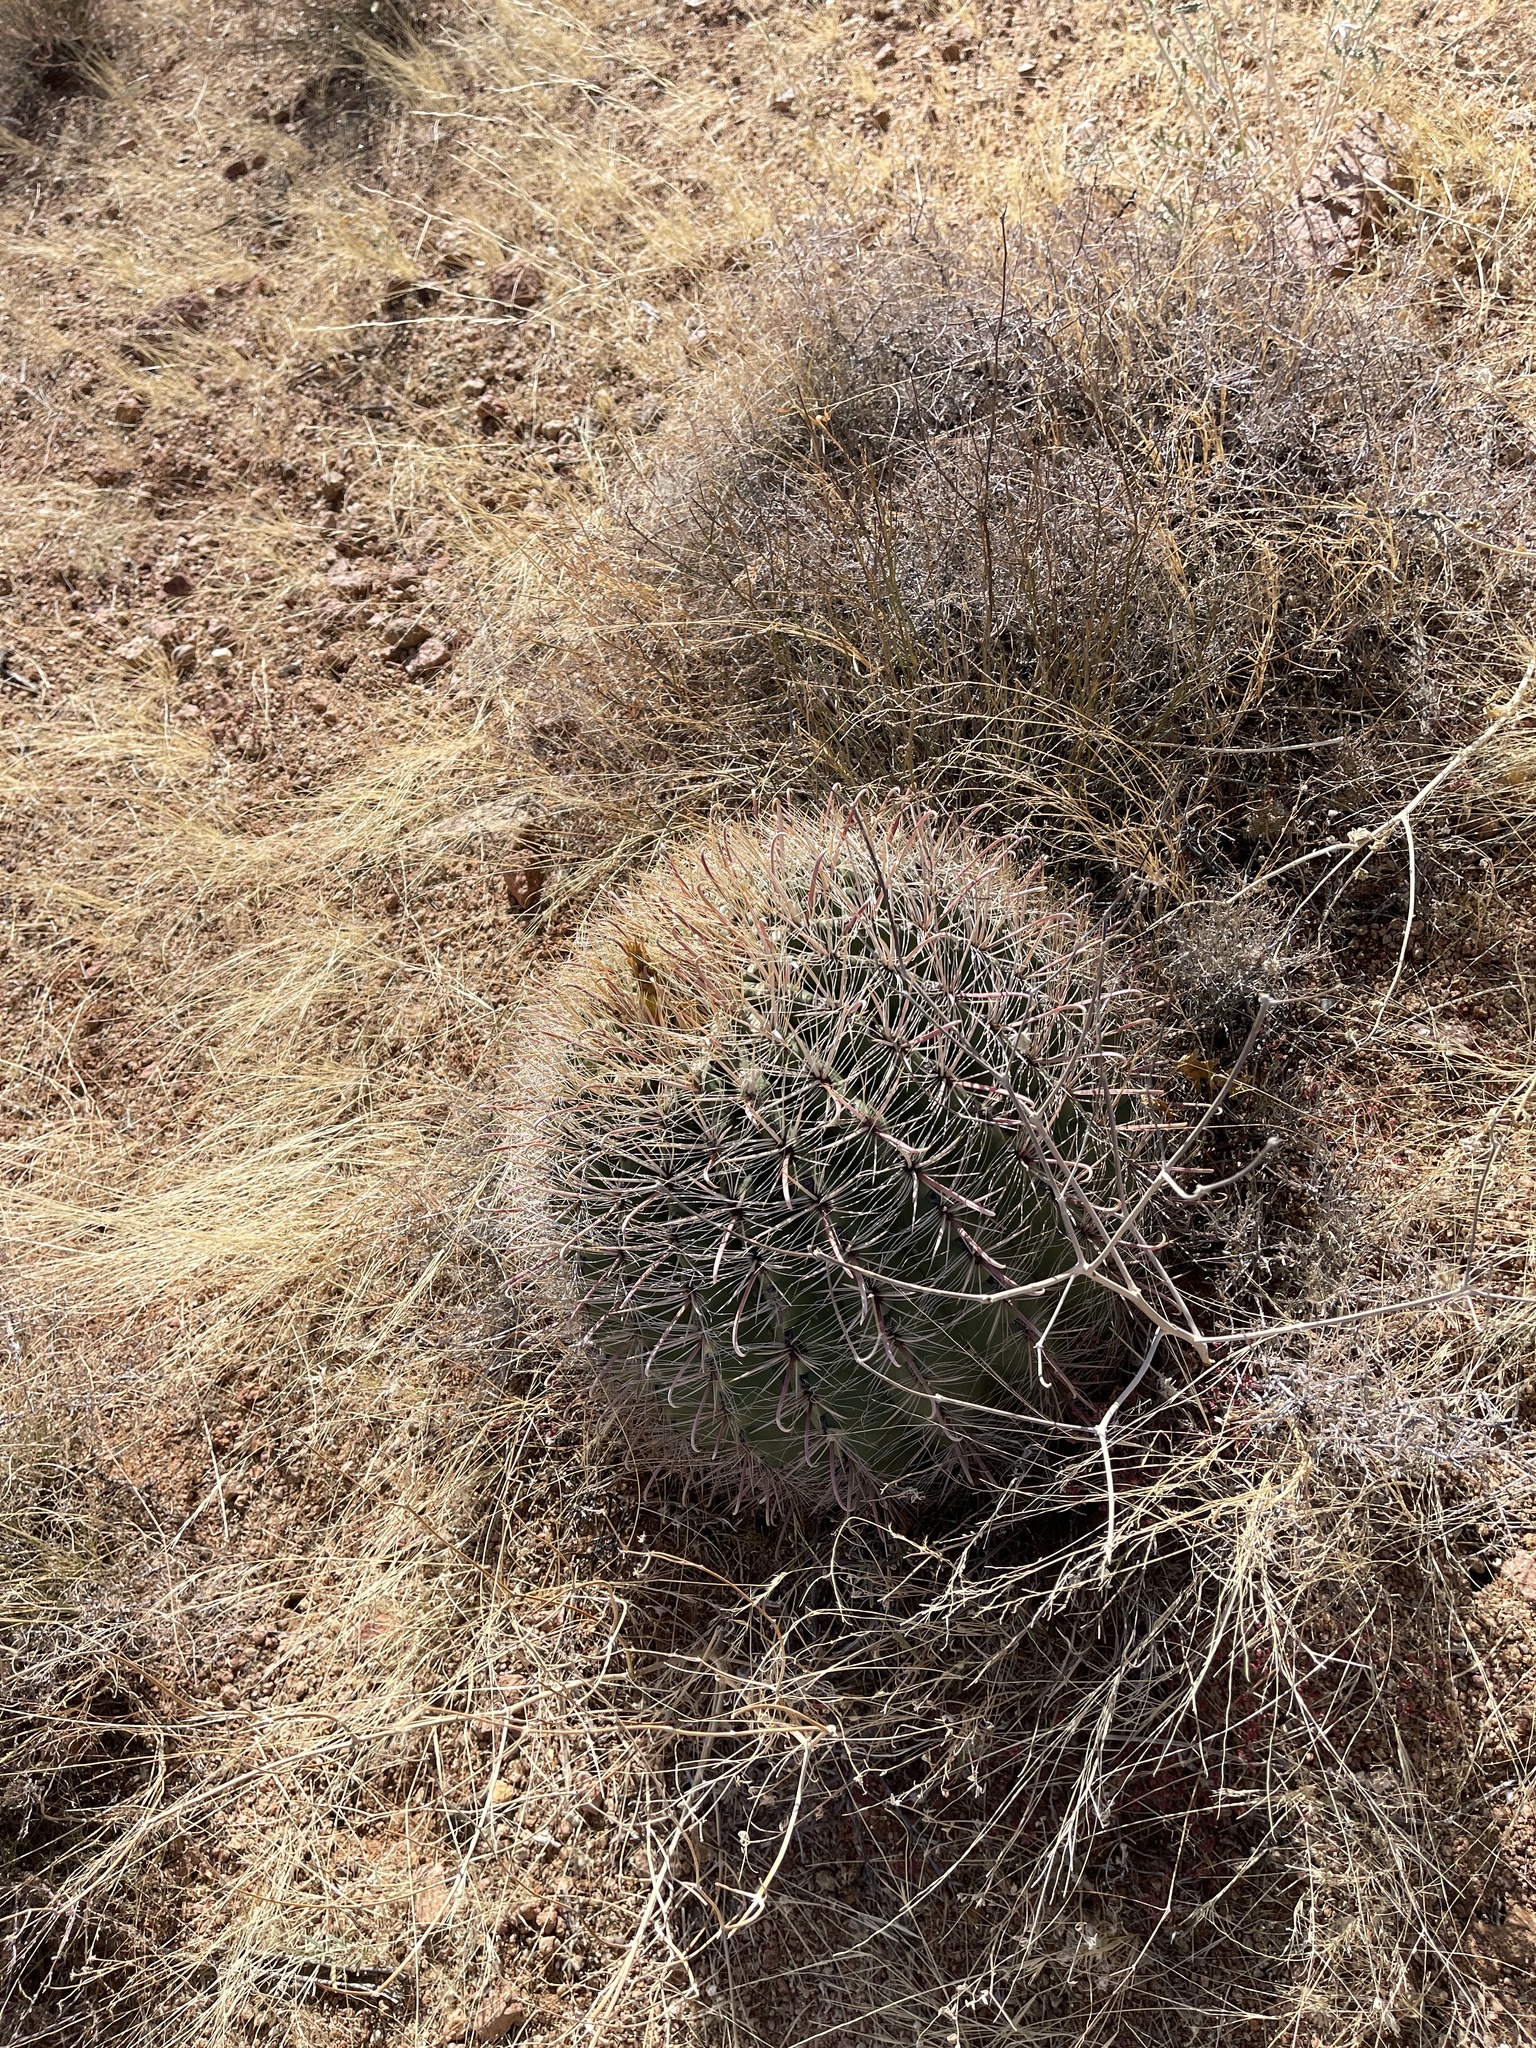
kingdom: Plantae
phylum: Tracheophyta
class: Magnoliopsida
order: Caryophyllales
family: Cactaceae
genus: Ferocactus
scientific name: Ferocactus wislizeni
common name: Candy barrel cactus
